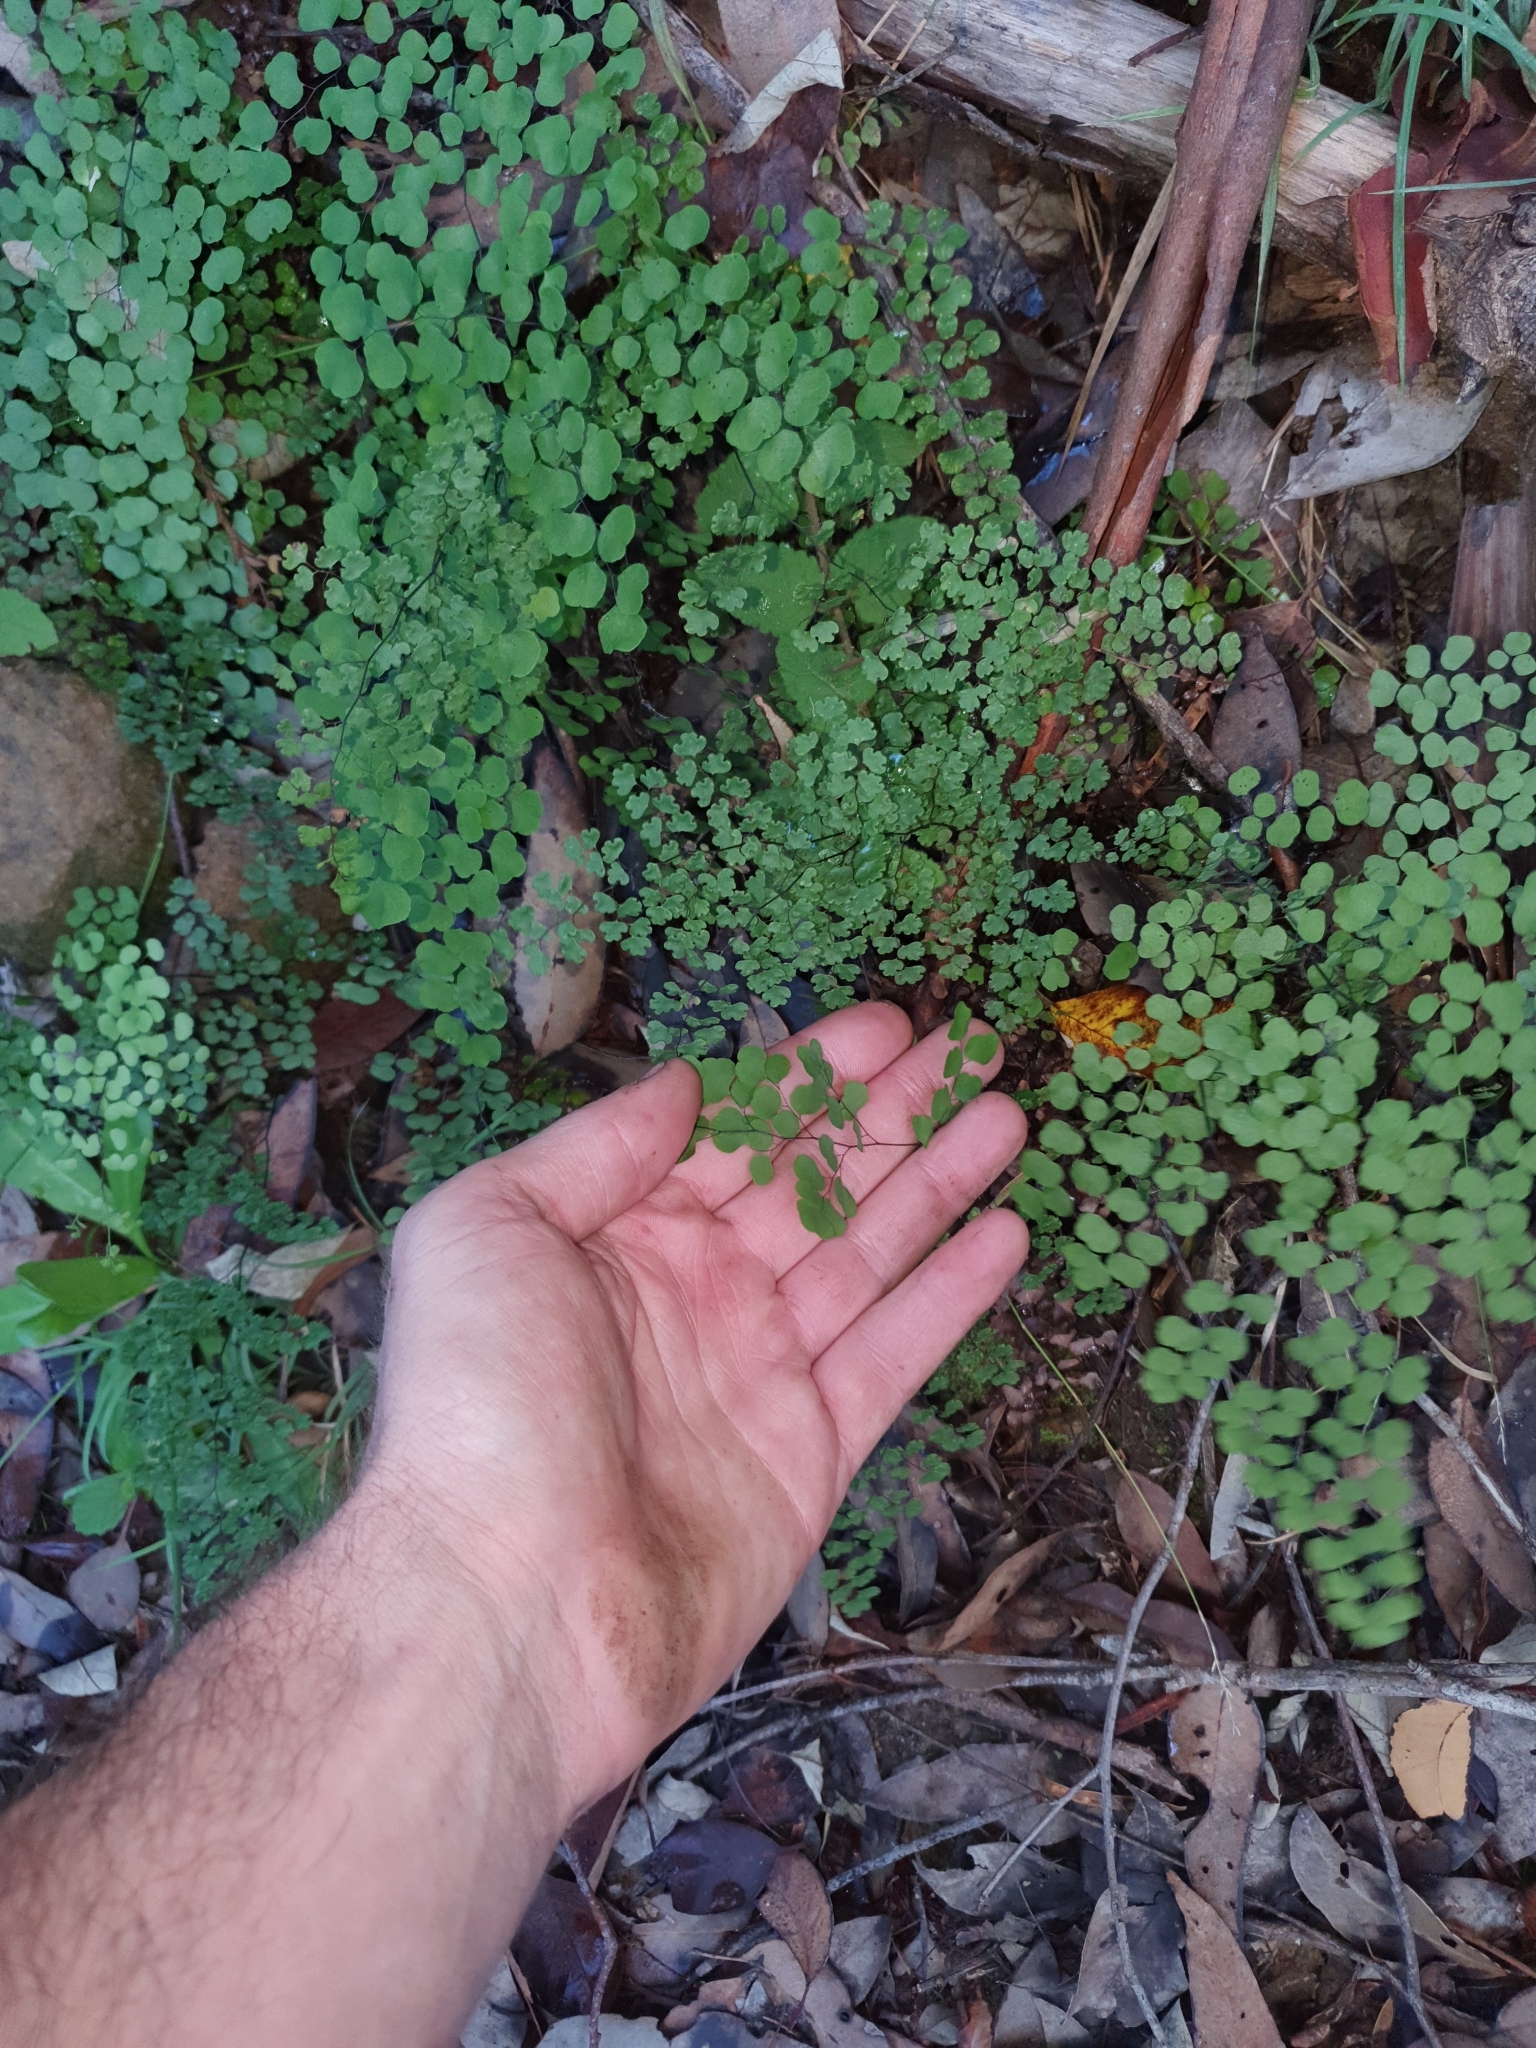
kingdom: Plantae
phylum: Tracheophyta
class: Polypodiopsida
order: Polypodiales
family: Pteridaceae
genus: Adiantum
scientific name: Adiantum aethiopicum
